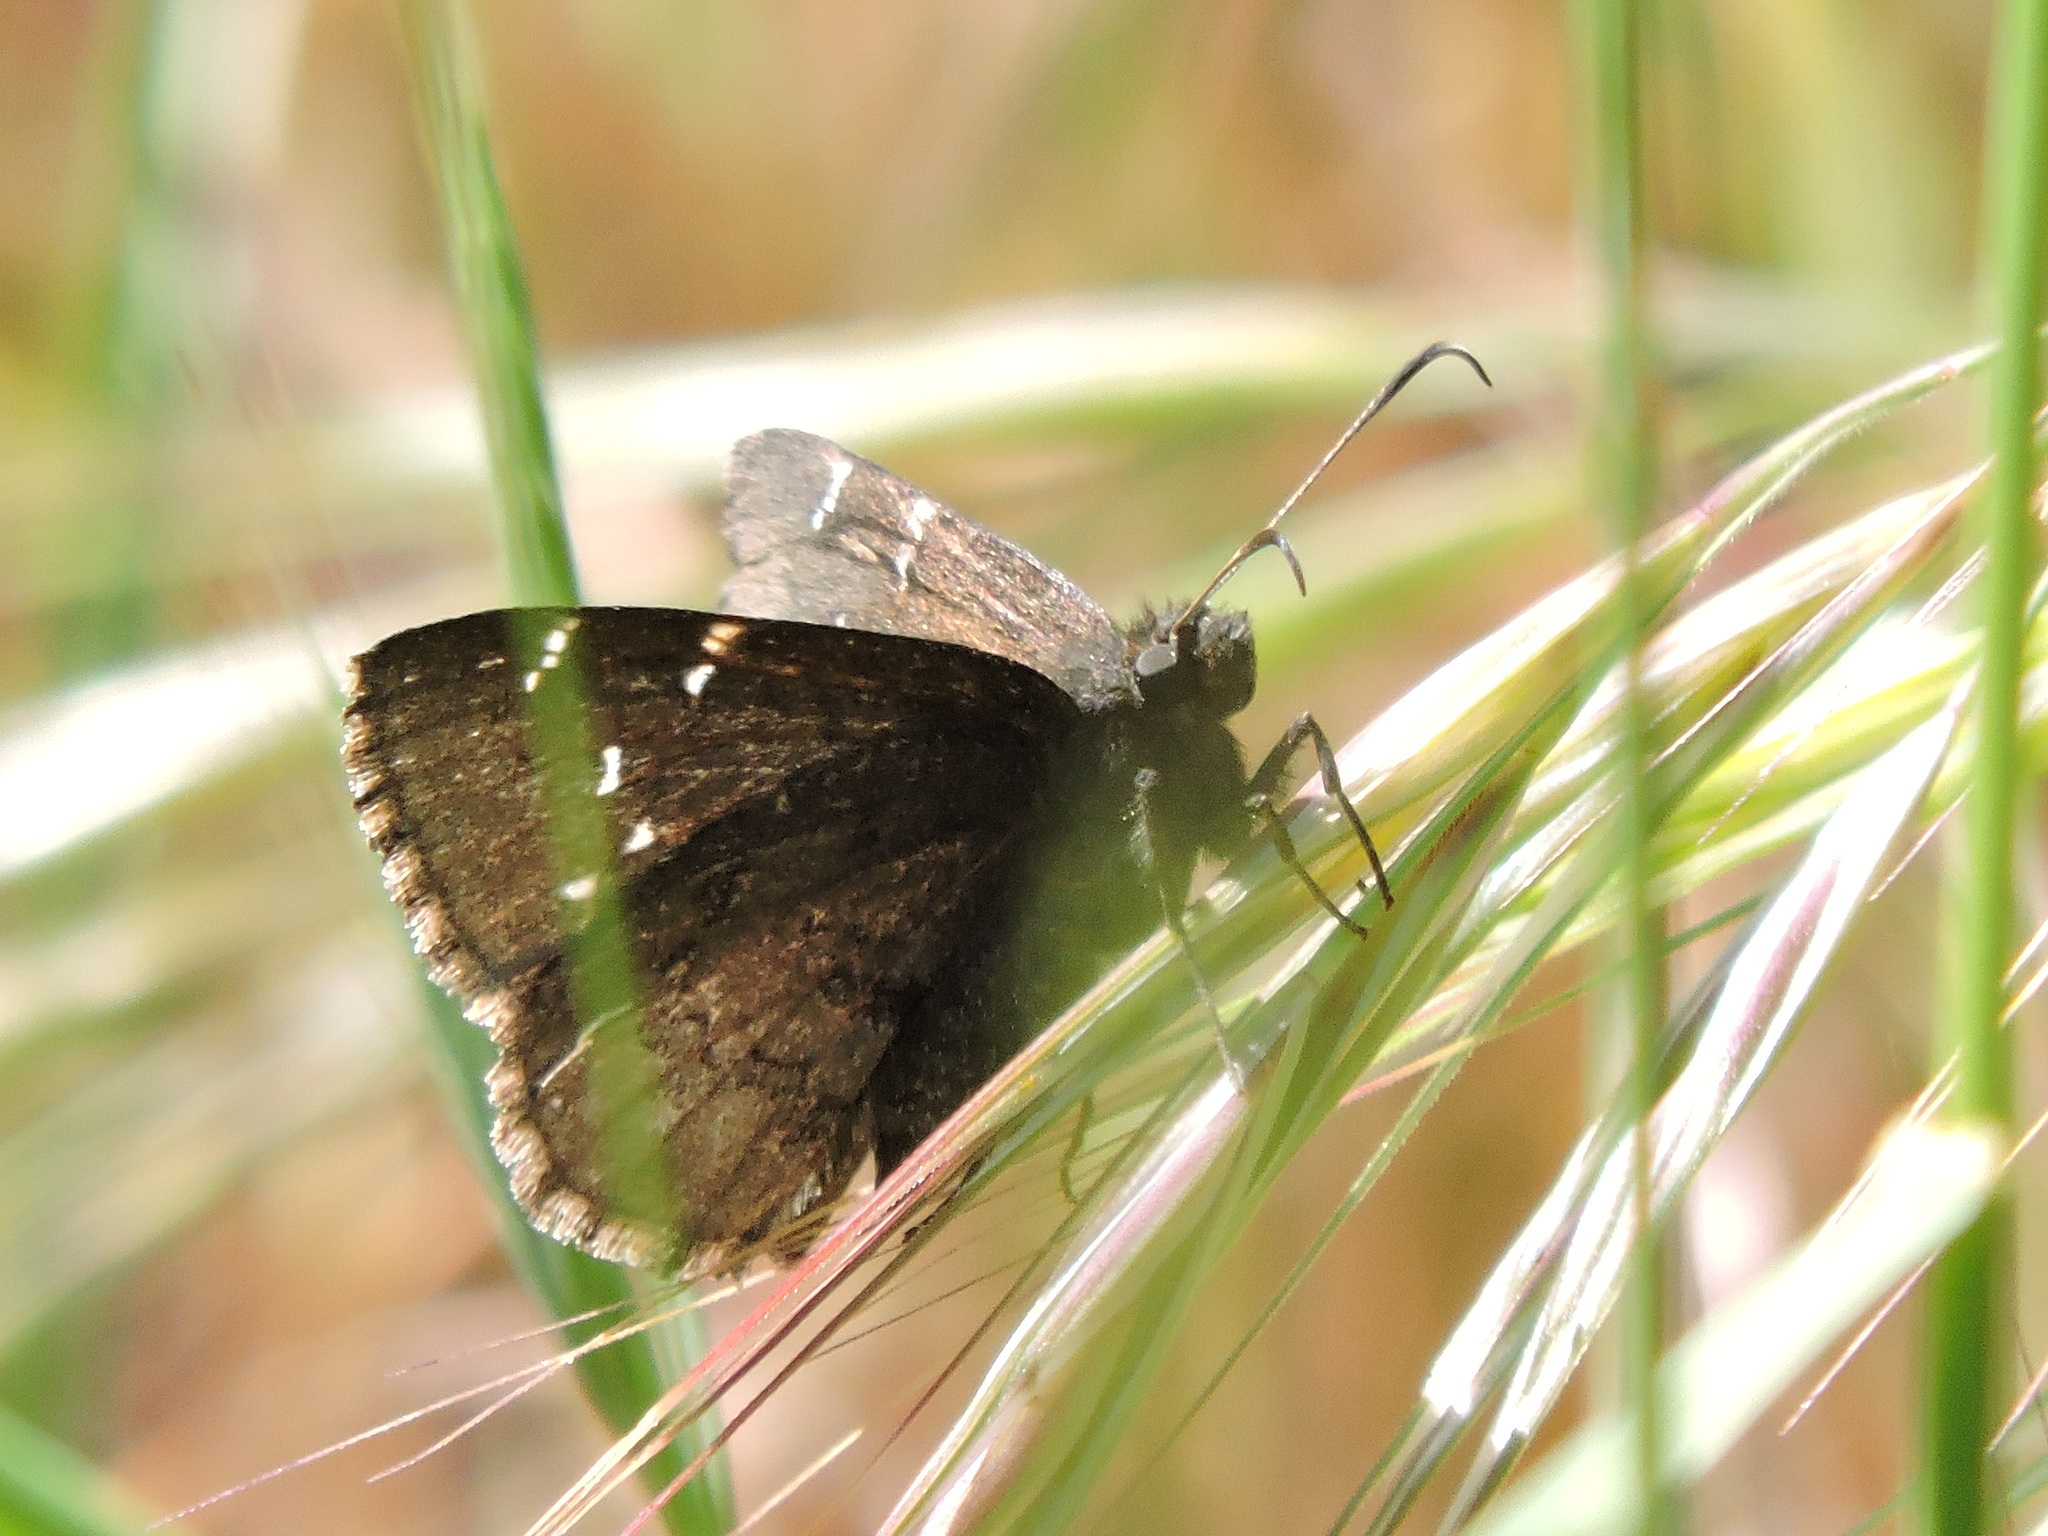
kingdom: Animalia
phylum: Arthropoda
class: Insecta
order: Lepidoptera
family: Hesperiidae
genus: Thorybes
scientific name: Thorybes pylades
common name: Northern cloudywing
